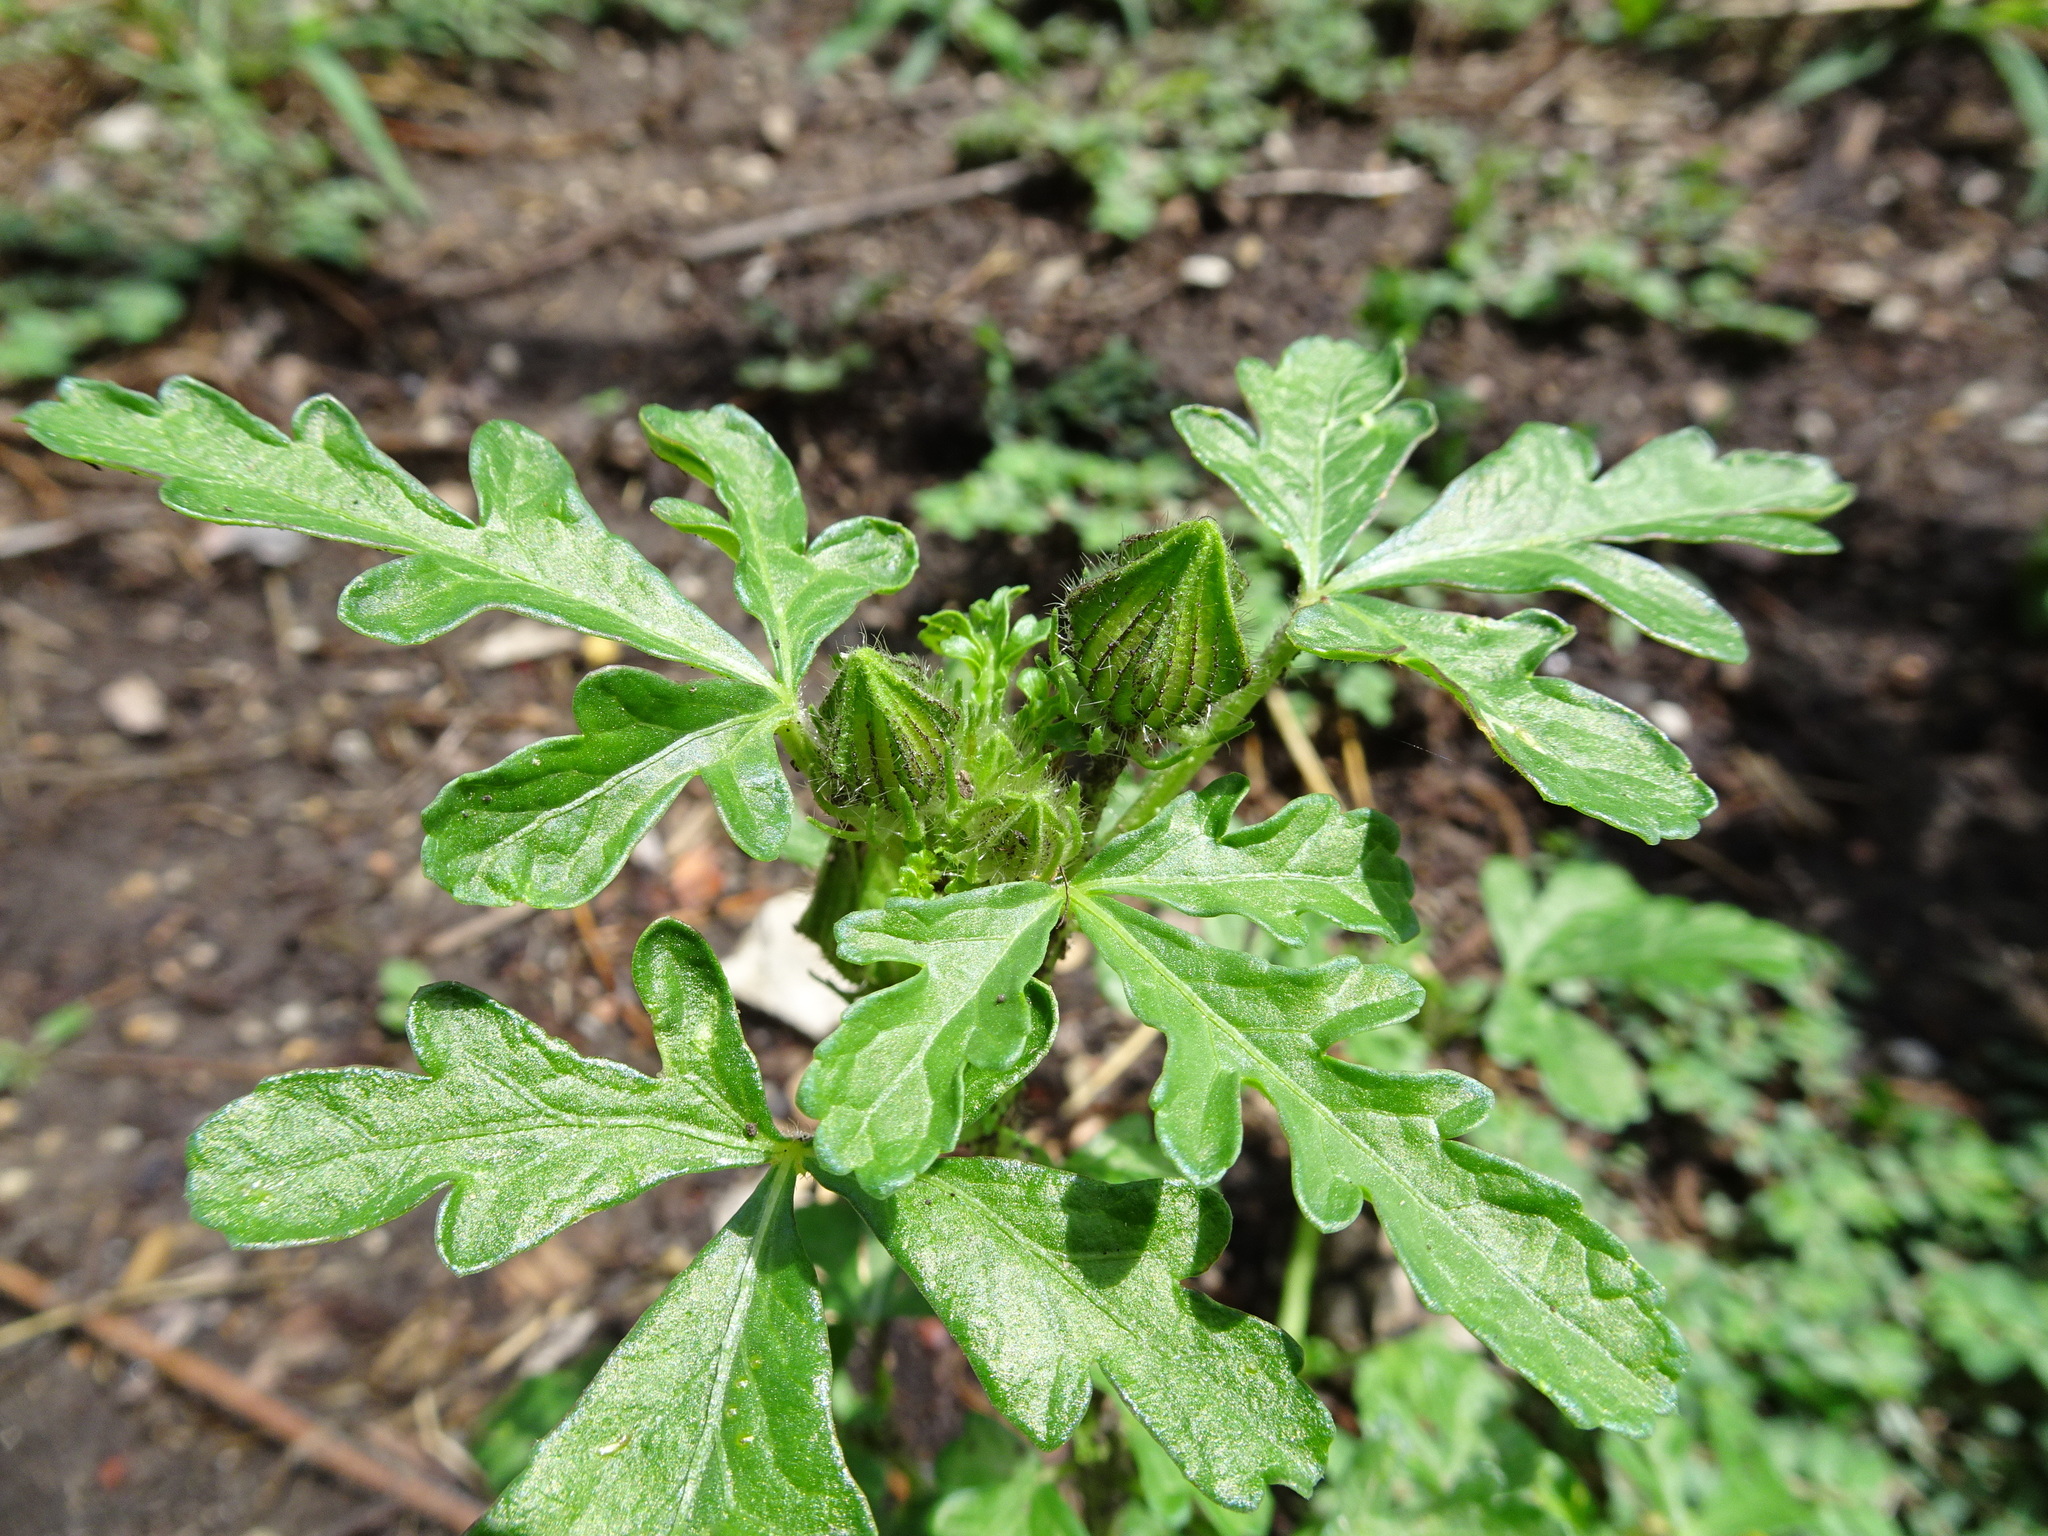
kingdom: Plantae
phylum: Tracheophyta
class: Magnoliopsida
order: Malvales
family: Malvaceae
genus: Hibiscus
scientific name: Hibiscus trionum
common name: Bladder ketmia
